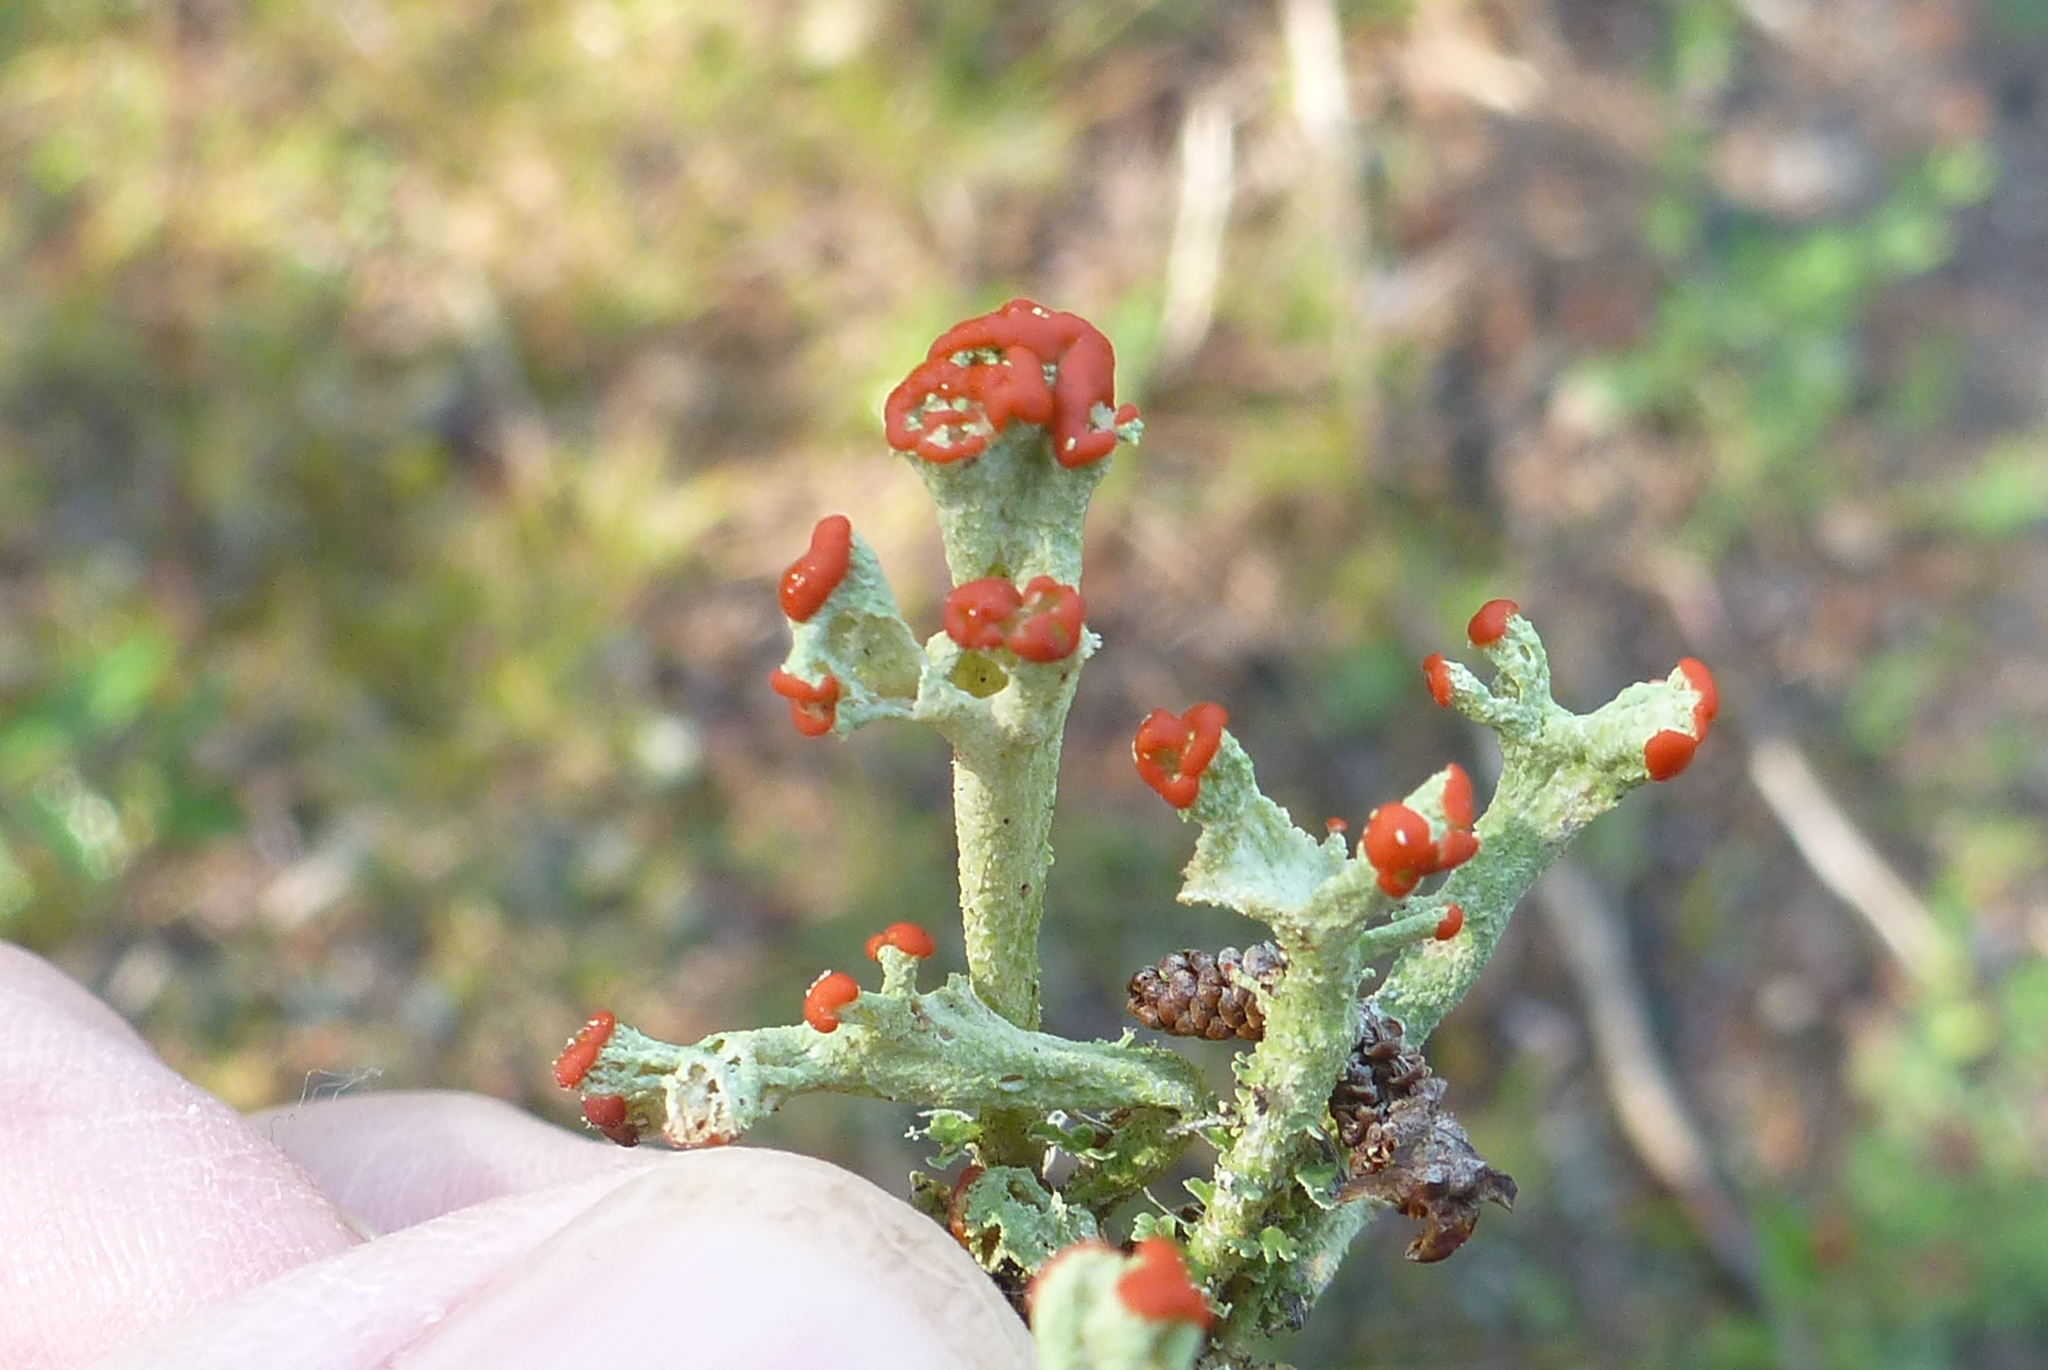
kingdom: Fungi
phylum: Ascomycota
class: Lecanoromycetes
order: Lecanorales
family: Cladoniaceae
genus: Cladonia
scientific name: Cladonia cristatella
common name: British soldier lichen
